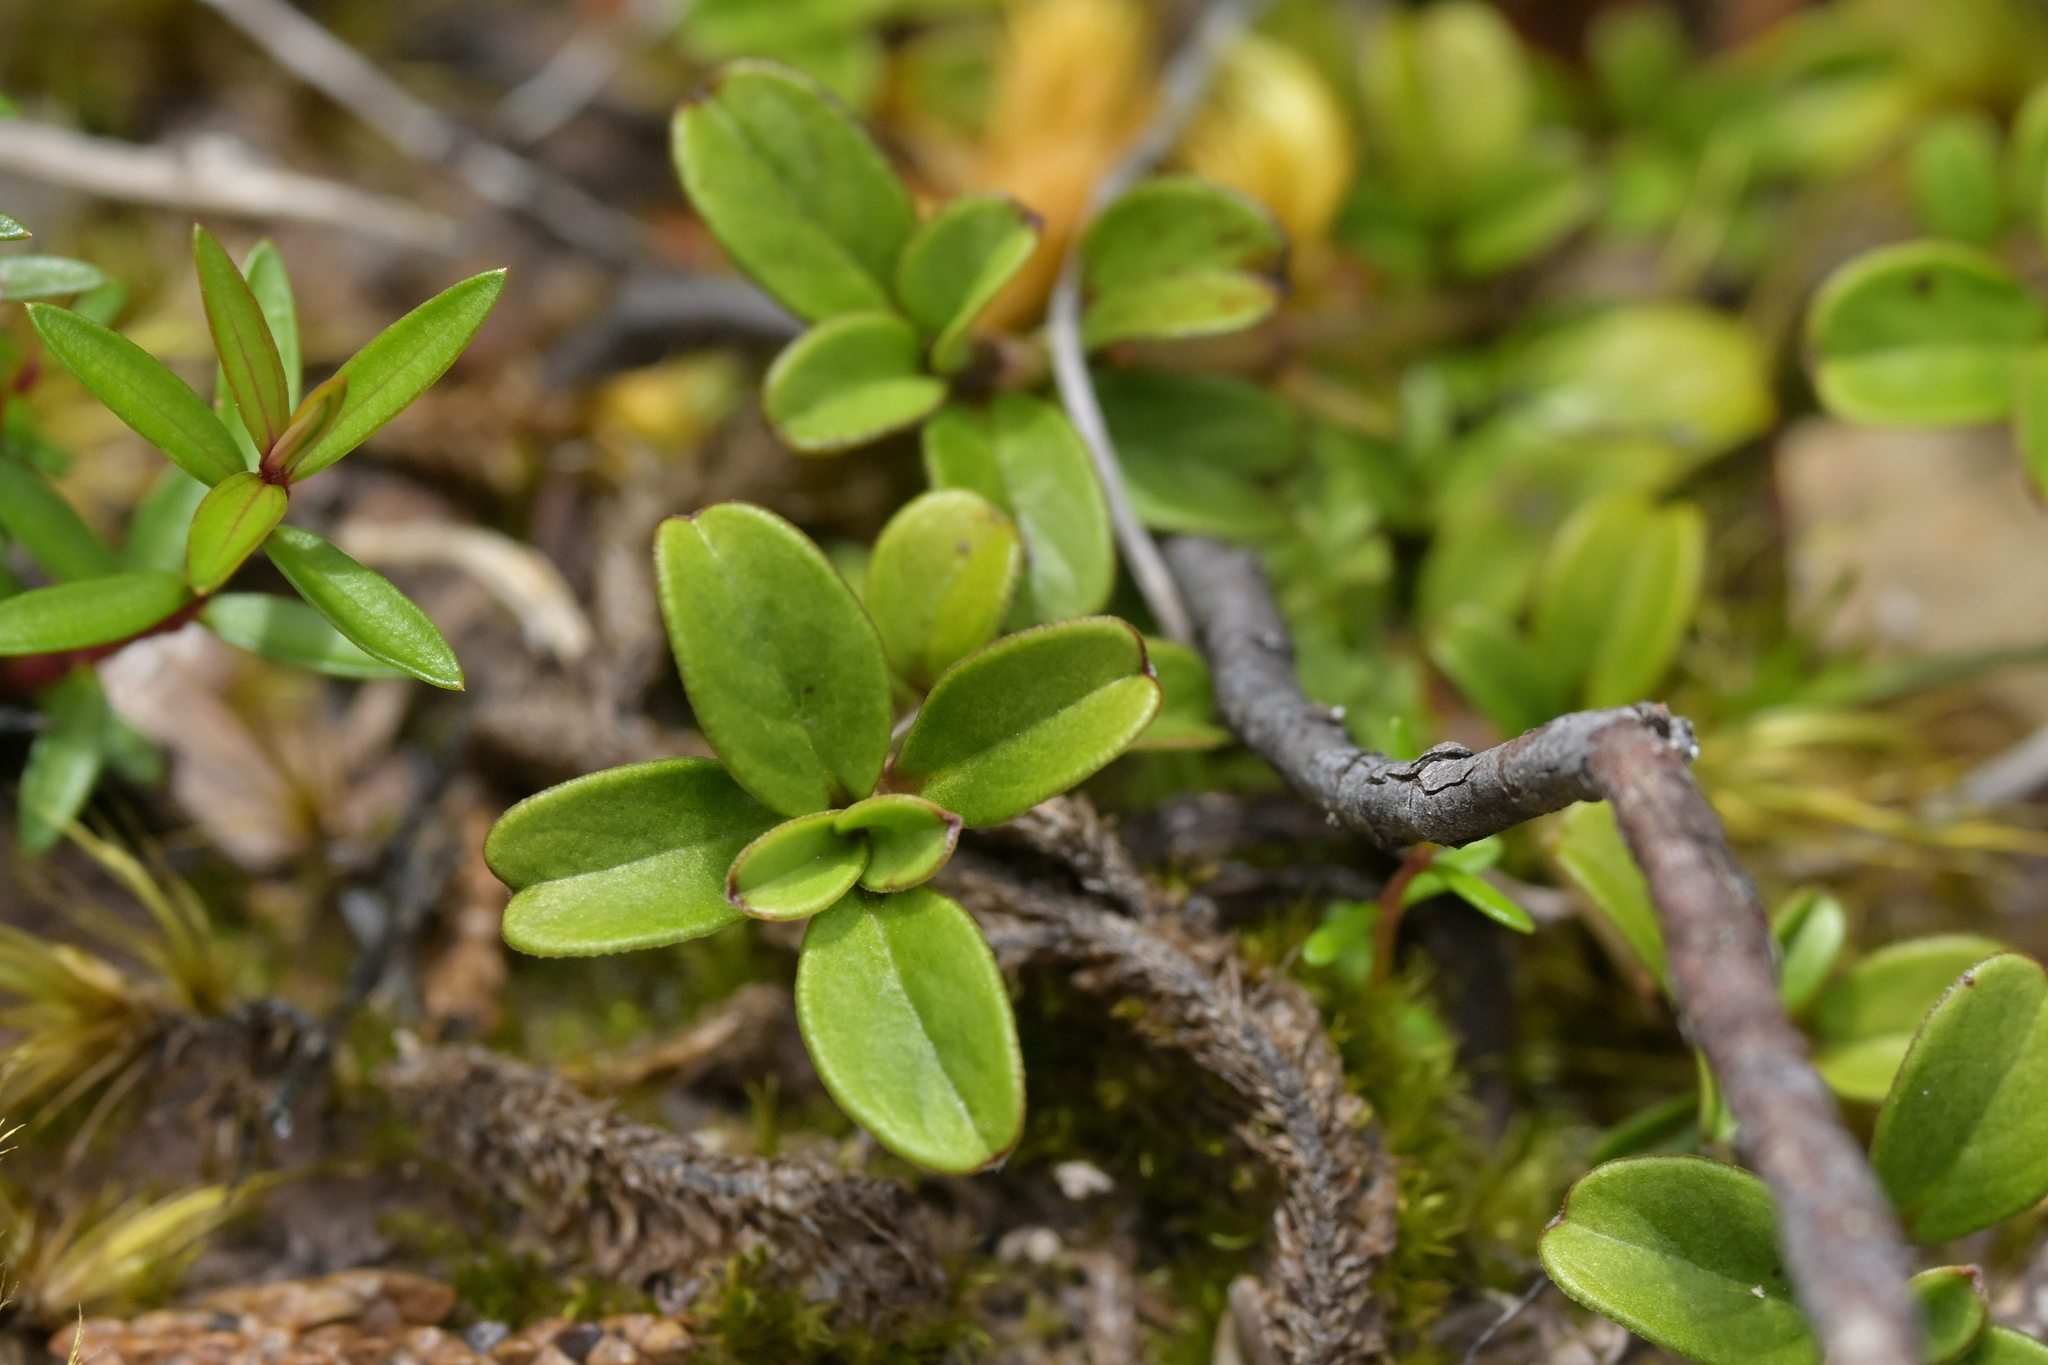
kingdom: Plantae
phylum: Tracheophyta
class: Magnoliopsida
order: Gentianales
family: Rubiaceae
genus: Coprosma
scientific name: Coprosma crenulata
